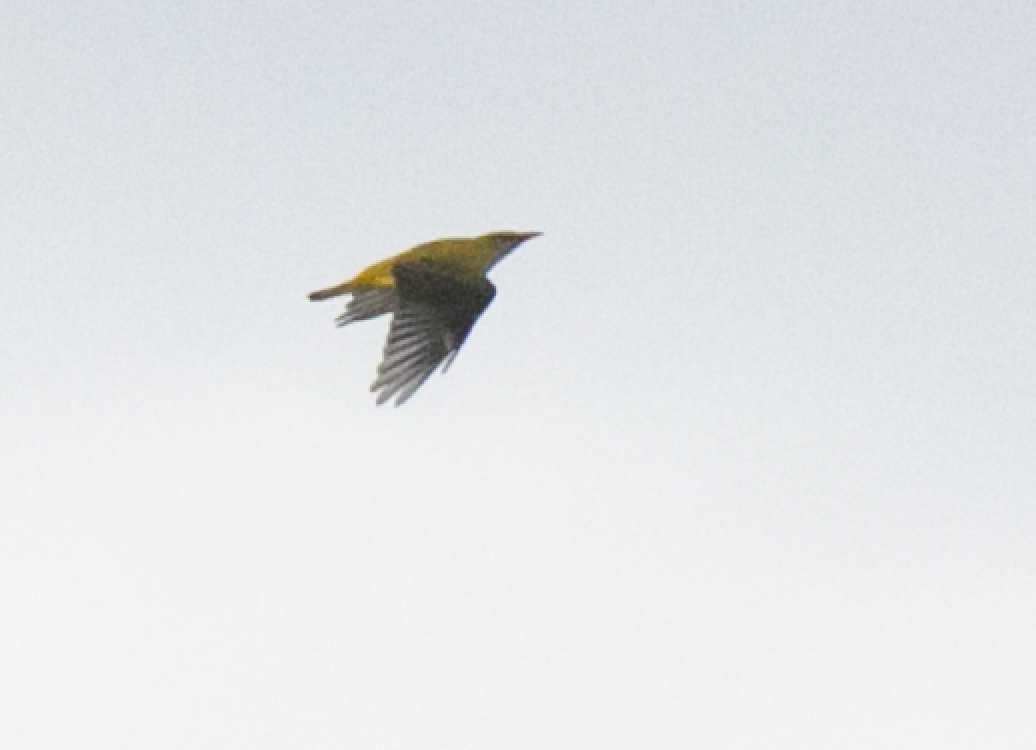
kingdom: Animalia
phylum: Chordata
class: Aves
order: Passeriformes
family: Oriolidae
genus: Oriolus
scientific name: Oriolus oriolus
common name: Eurasian golden oriole
